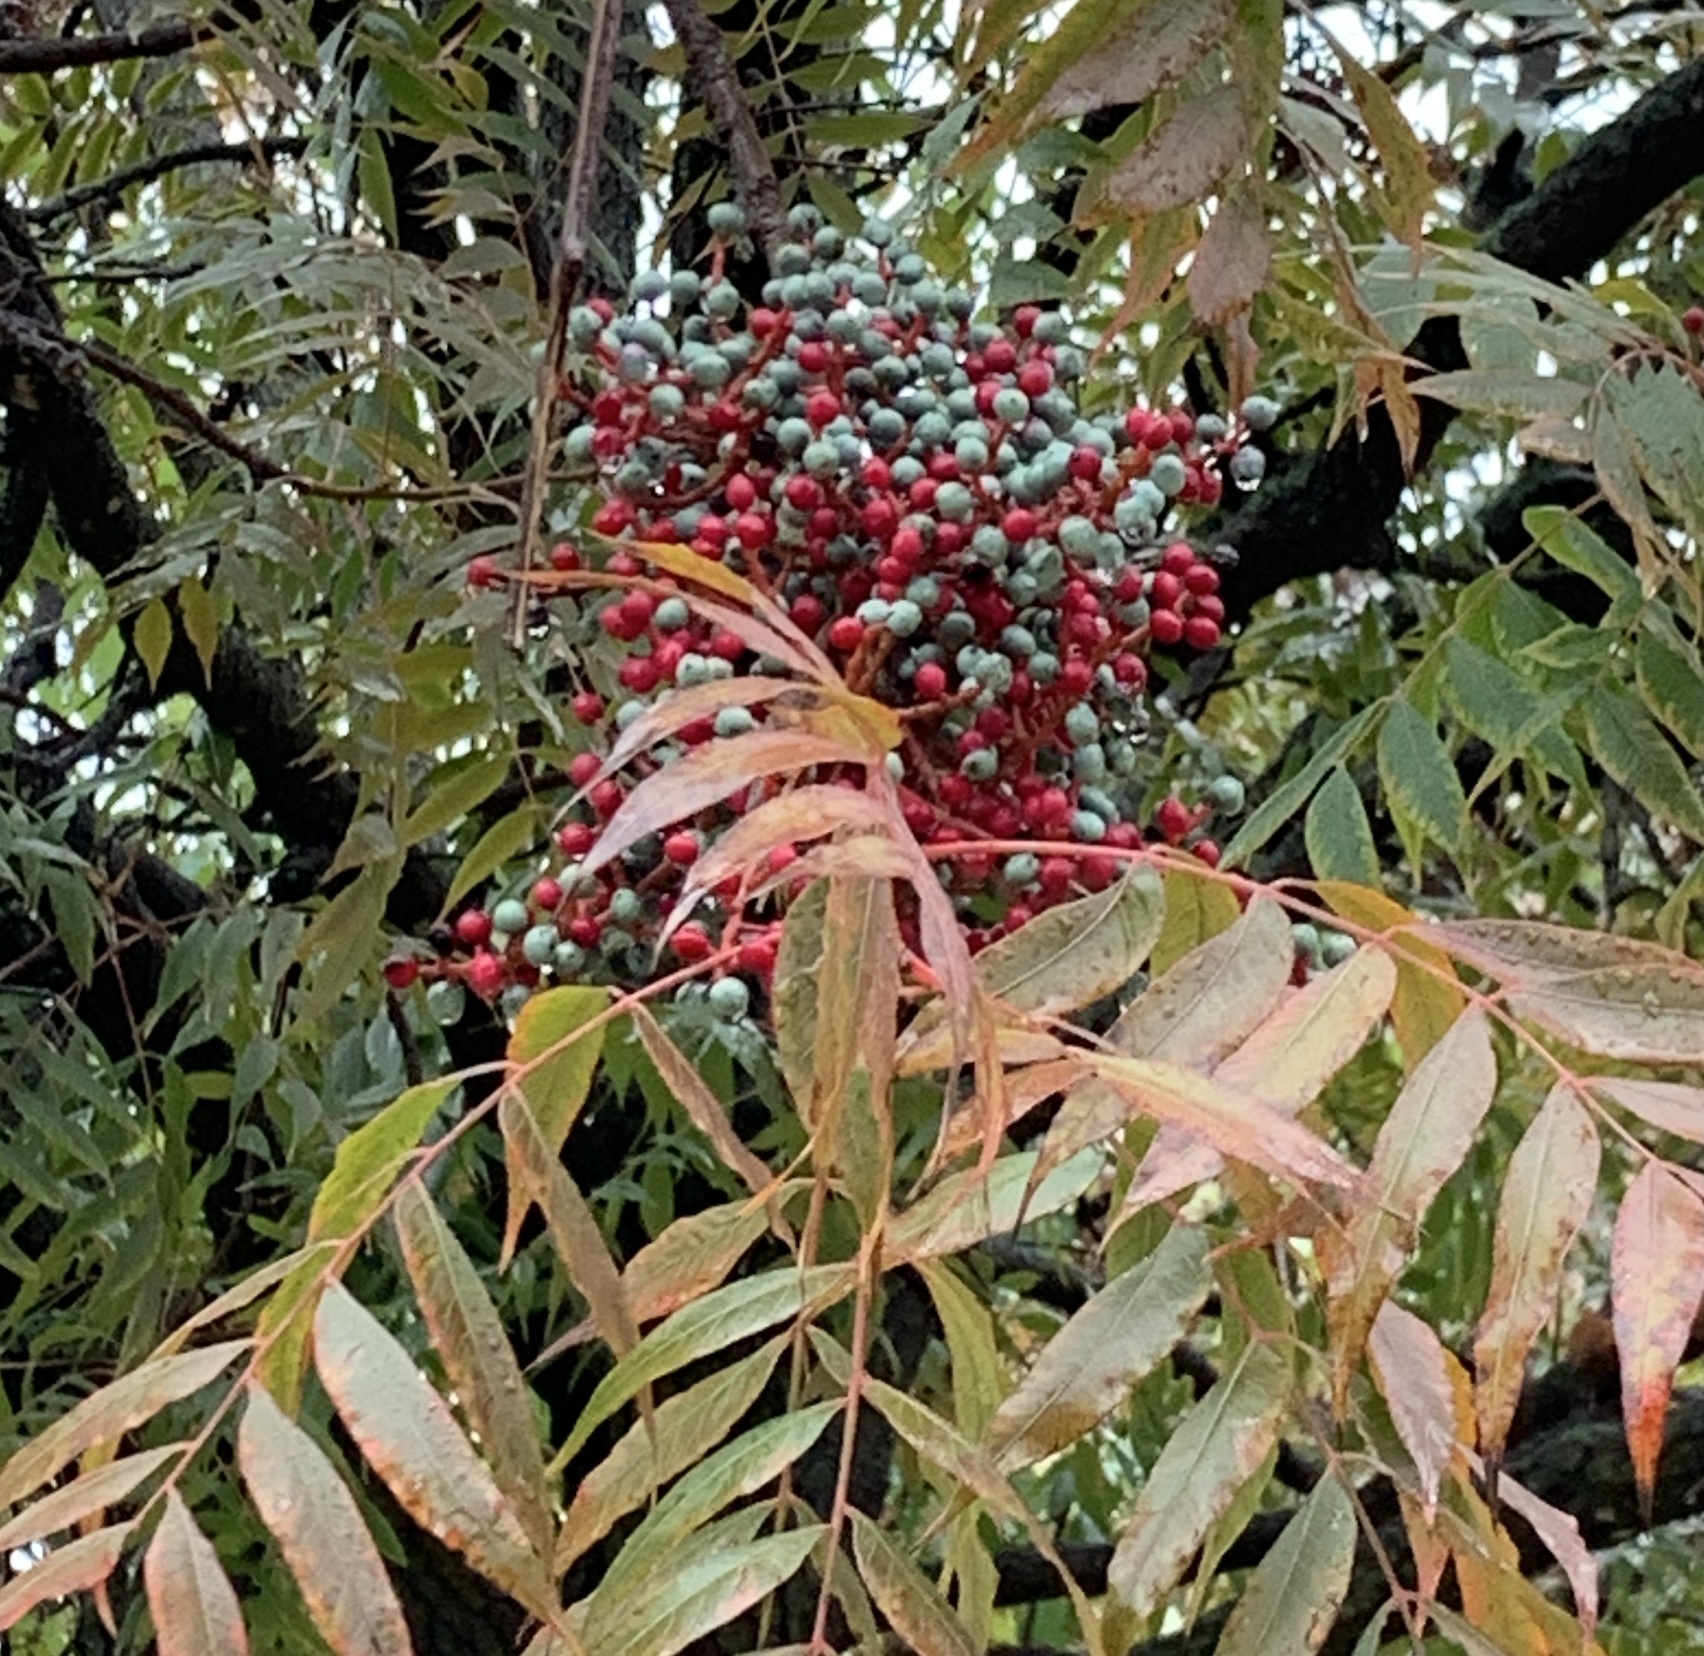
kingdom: Plantae
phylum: Tracheophyta
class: Magnoliopsida
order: Sapindales
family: Anacardiaceae
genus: Pistacia
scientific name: Pistacia chinensis
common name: Chinese pistache
